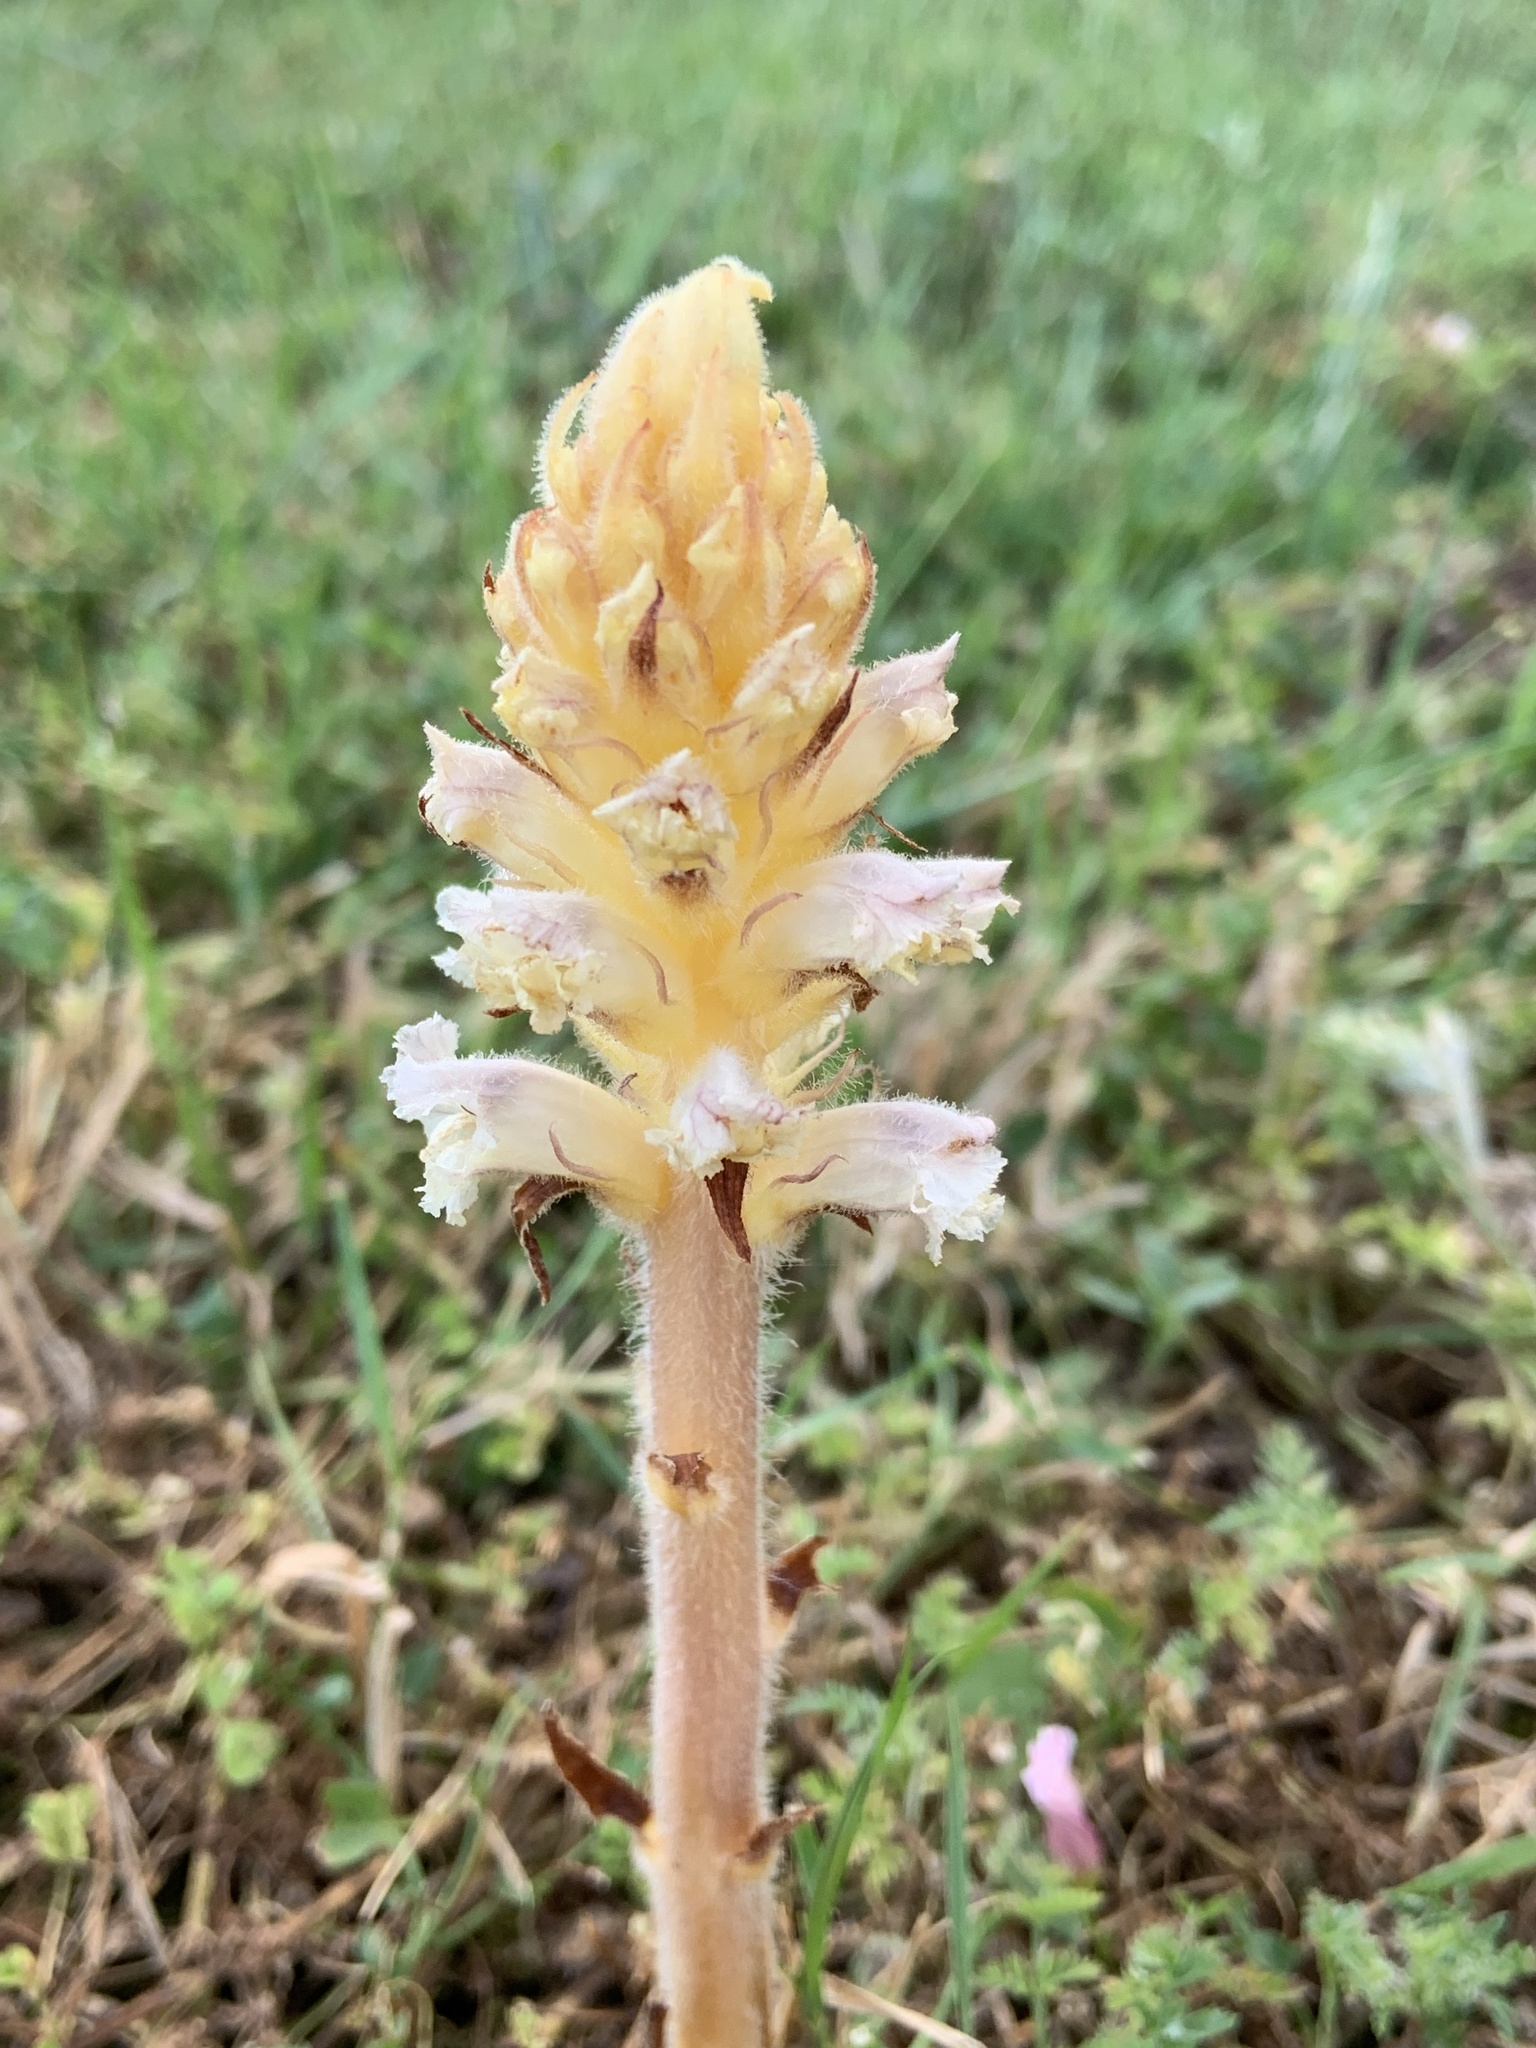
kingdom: Plantae
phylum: Tracheophyta
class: Magnoliopsida
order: Lamiales
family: Orobanchaceae
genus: Orobanche
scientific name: Orobanche picridis
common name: Oxtongue broomrape
